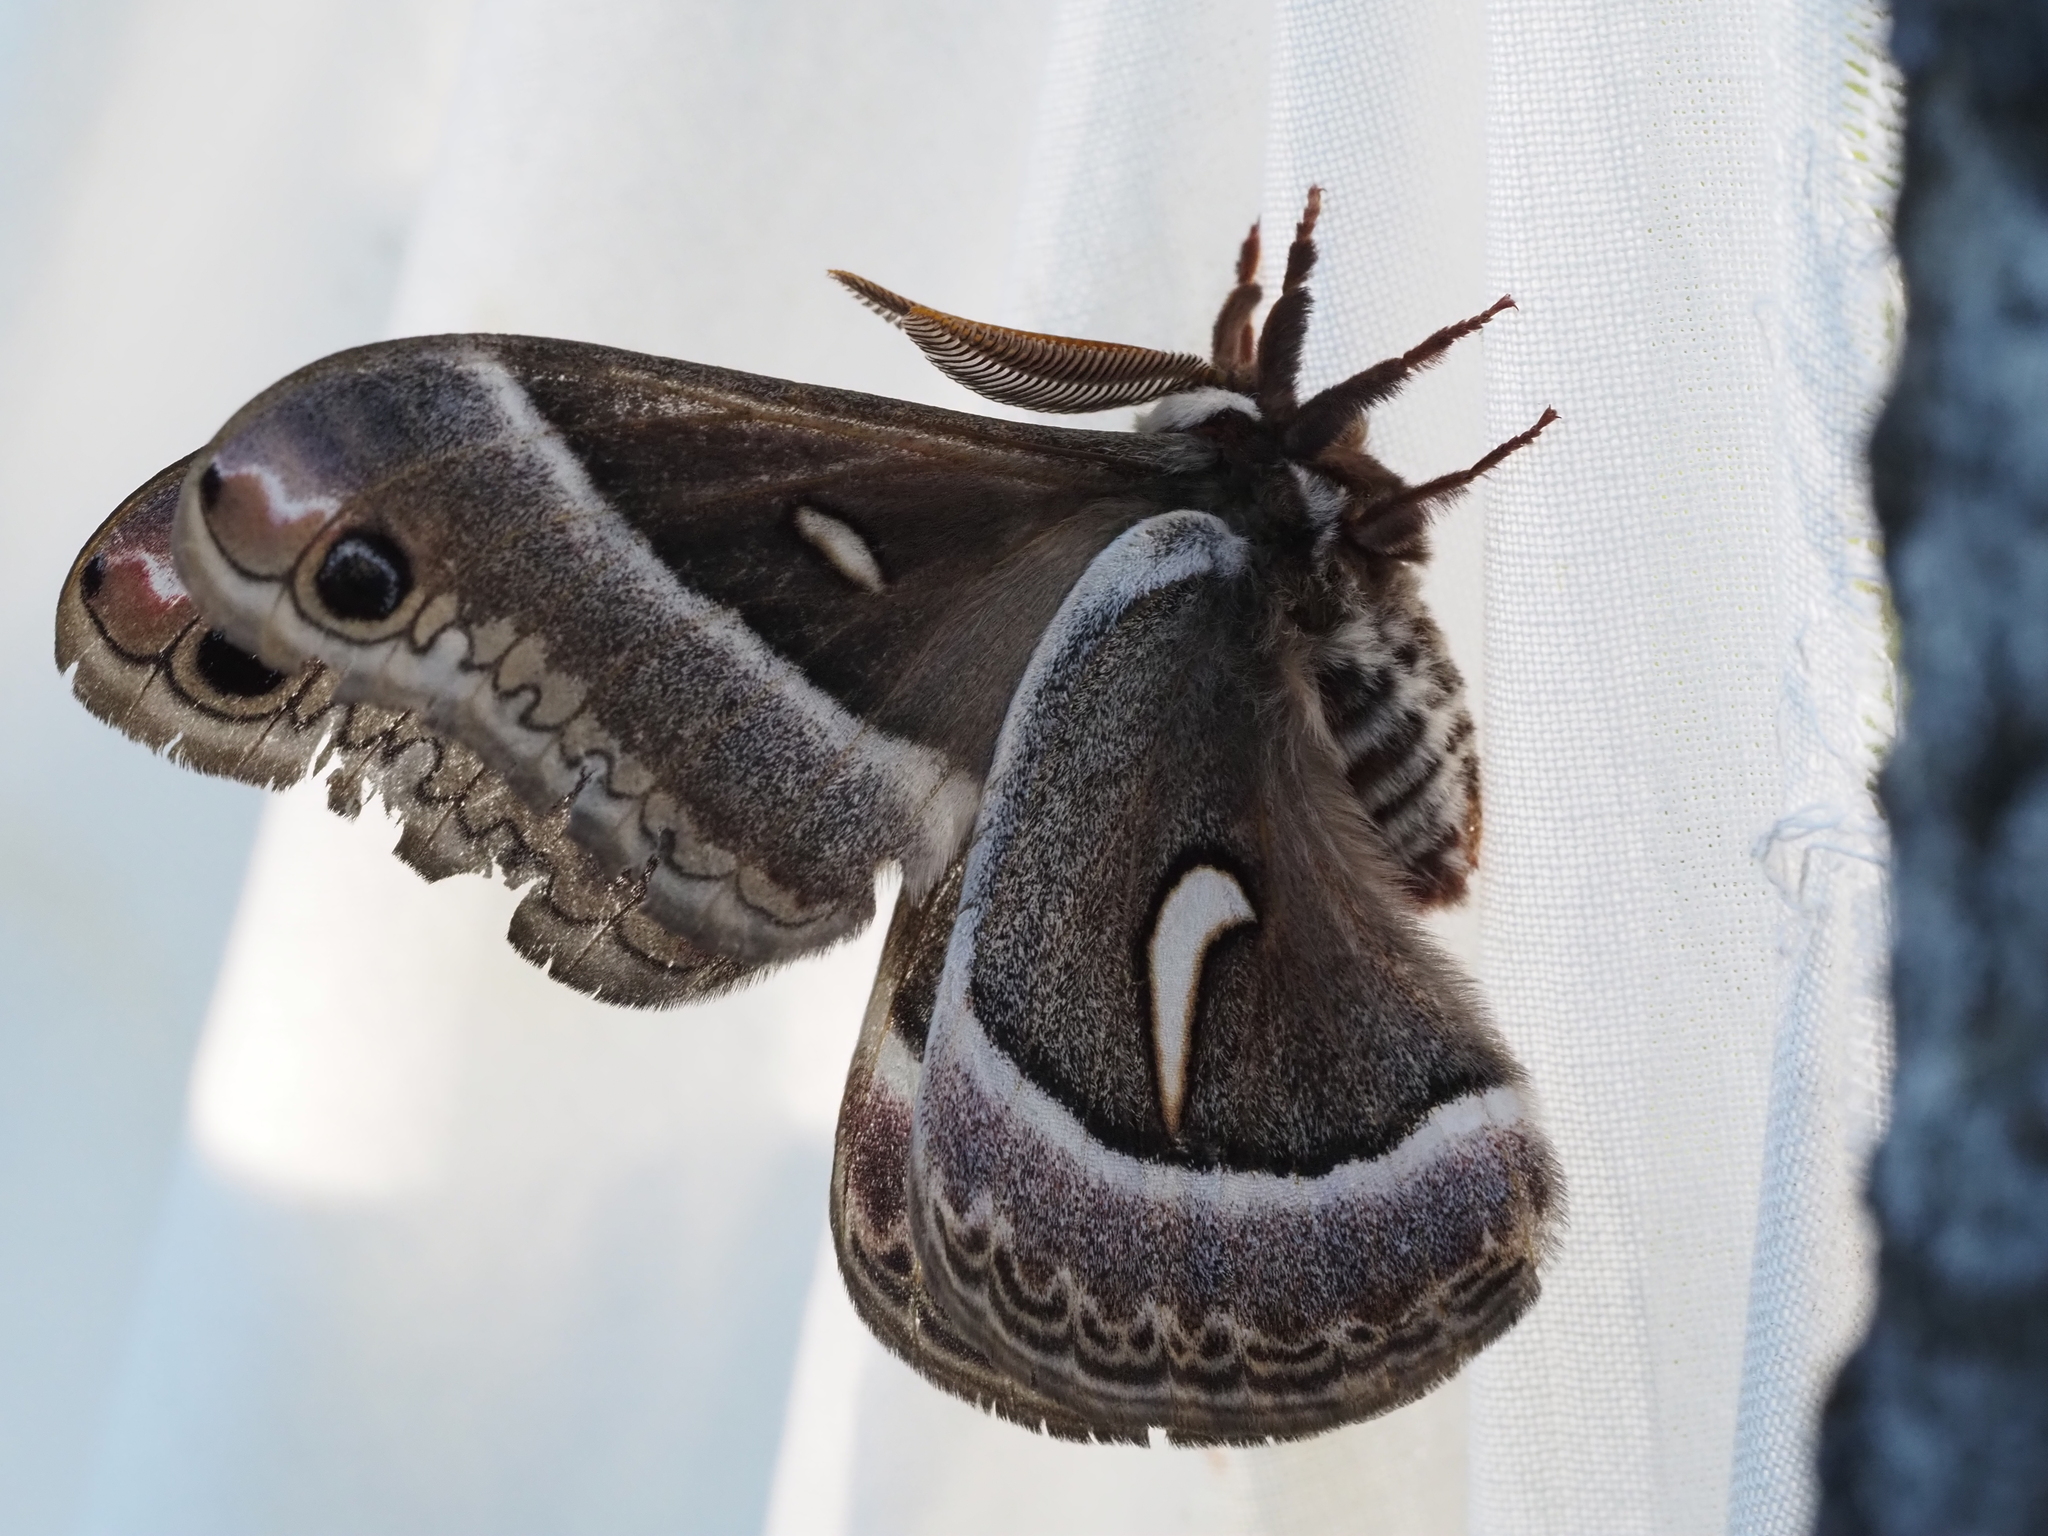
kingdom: Animalia
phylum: Arthropoda
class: Insecta
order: Lepidoptera
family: Saturniidae
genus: Hyalophora
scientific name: Hyalophora euryalus
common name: Ceanothus silkmoth
